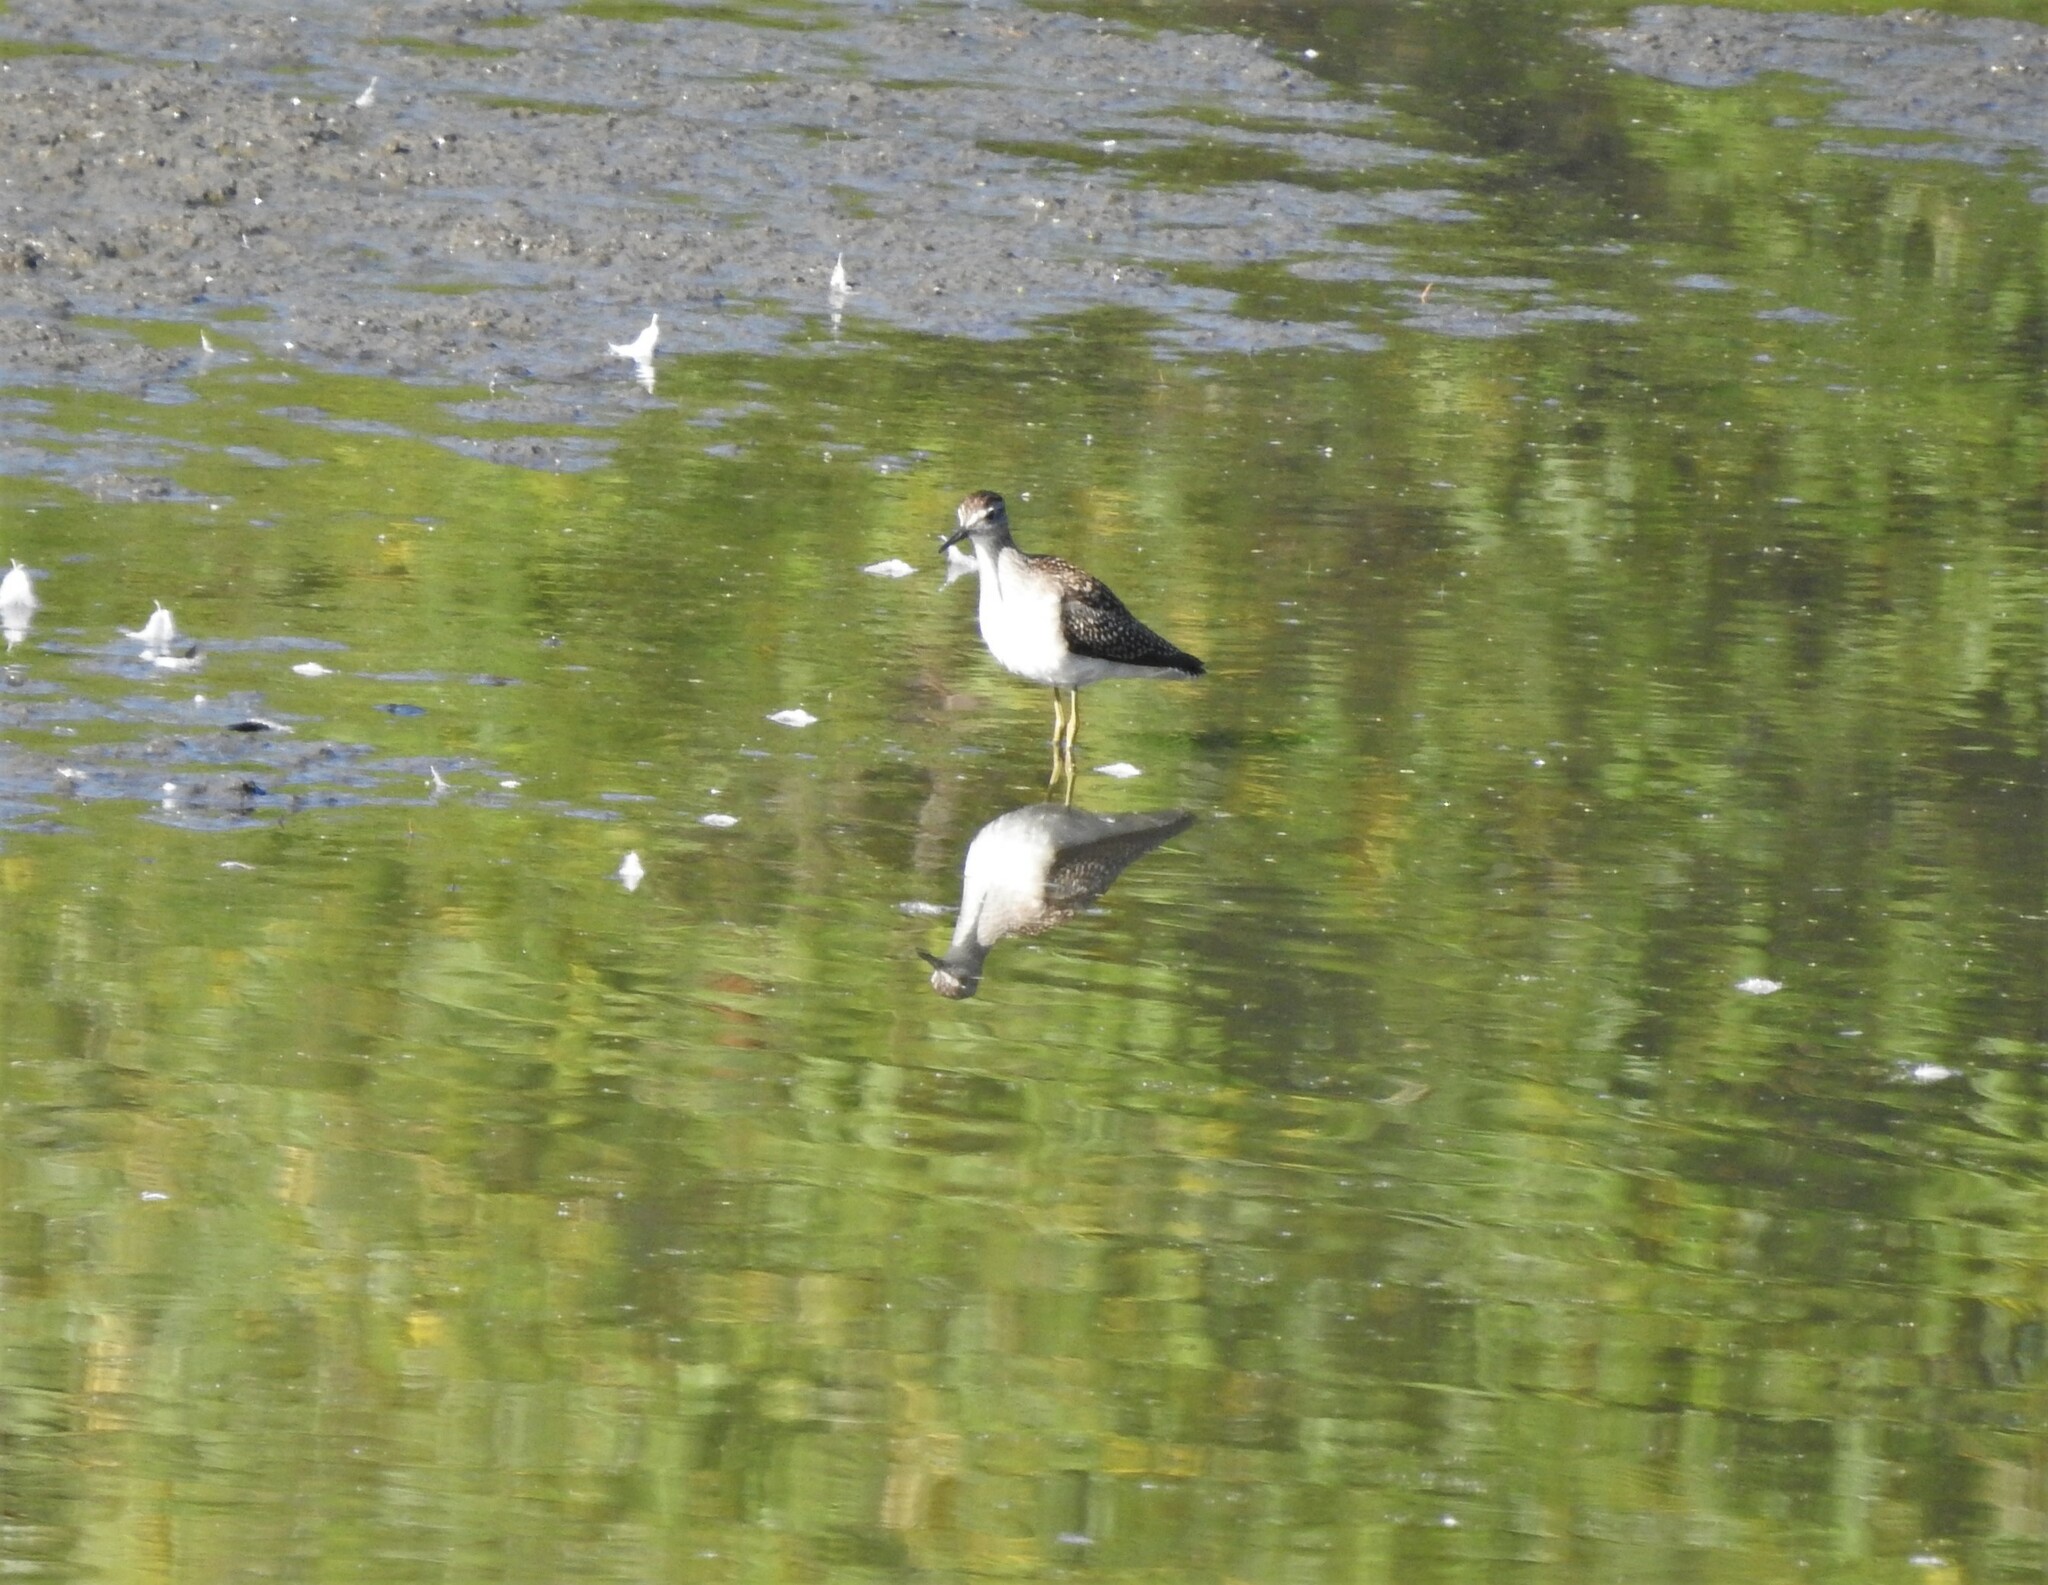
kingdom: Animalia
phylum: Chordata
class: Aves
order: Charadriiformes
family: Scolopacidae
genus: Tringa
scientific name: Tringa glareola
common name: Wood sandpiper
